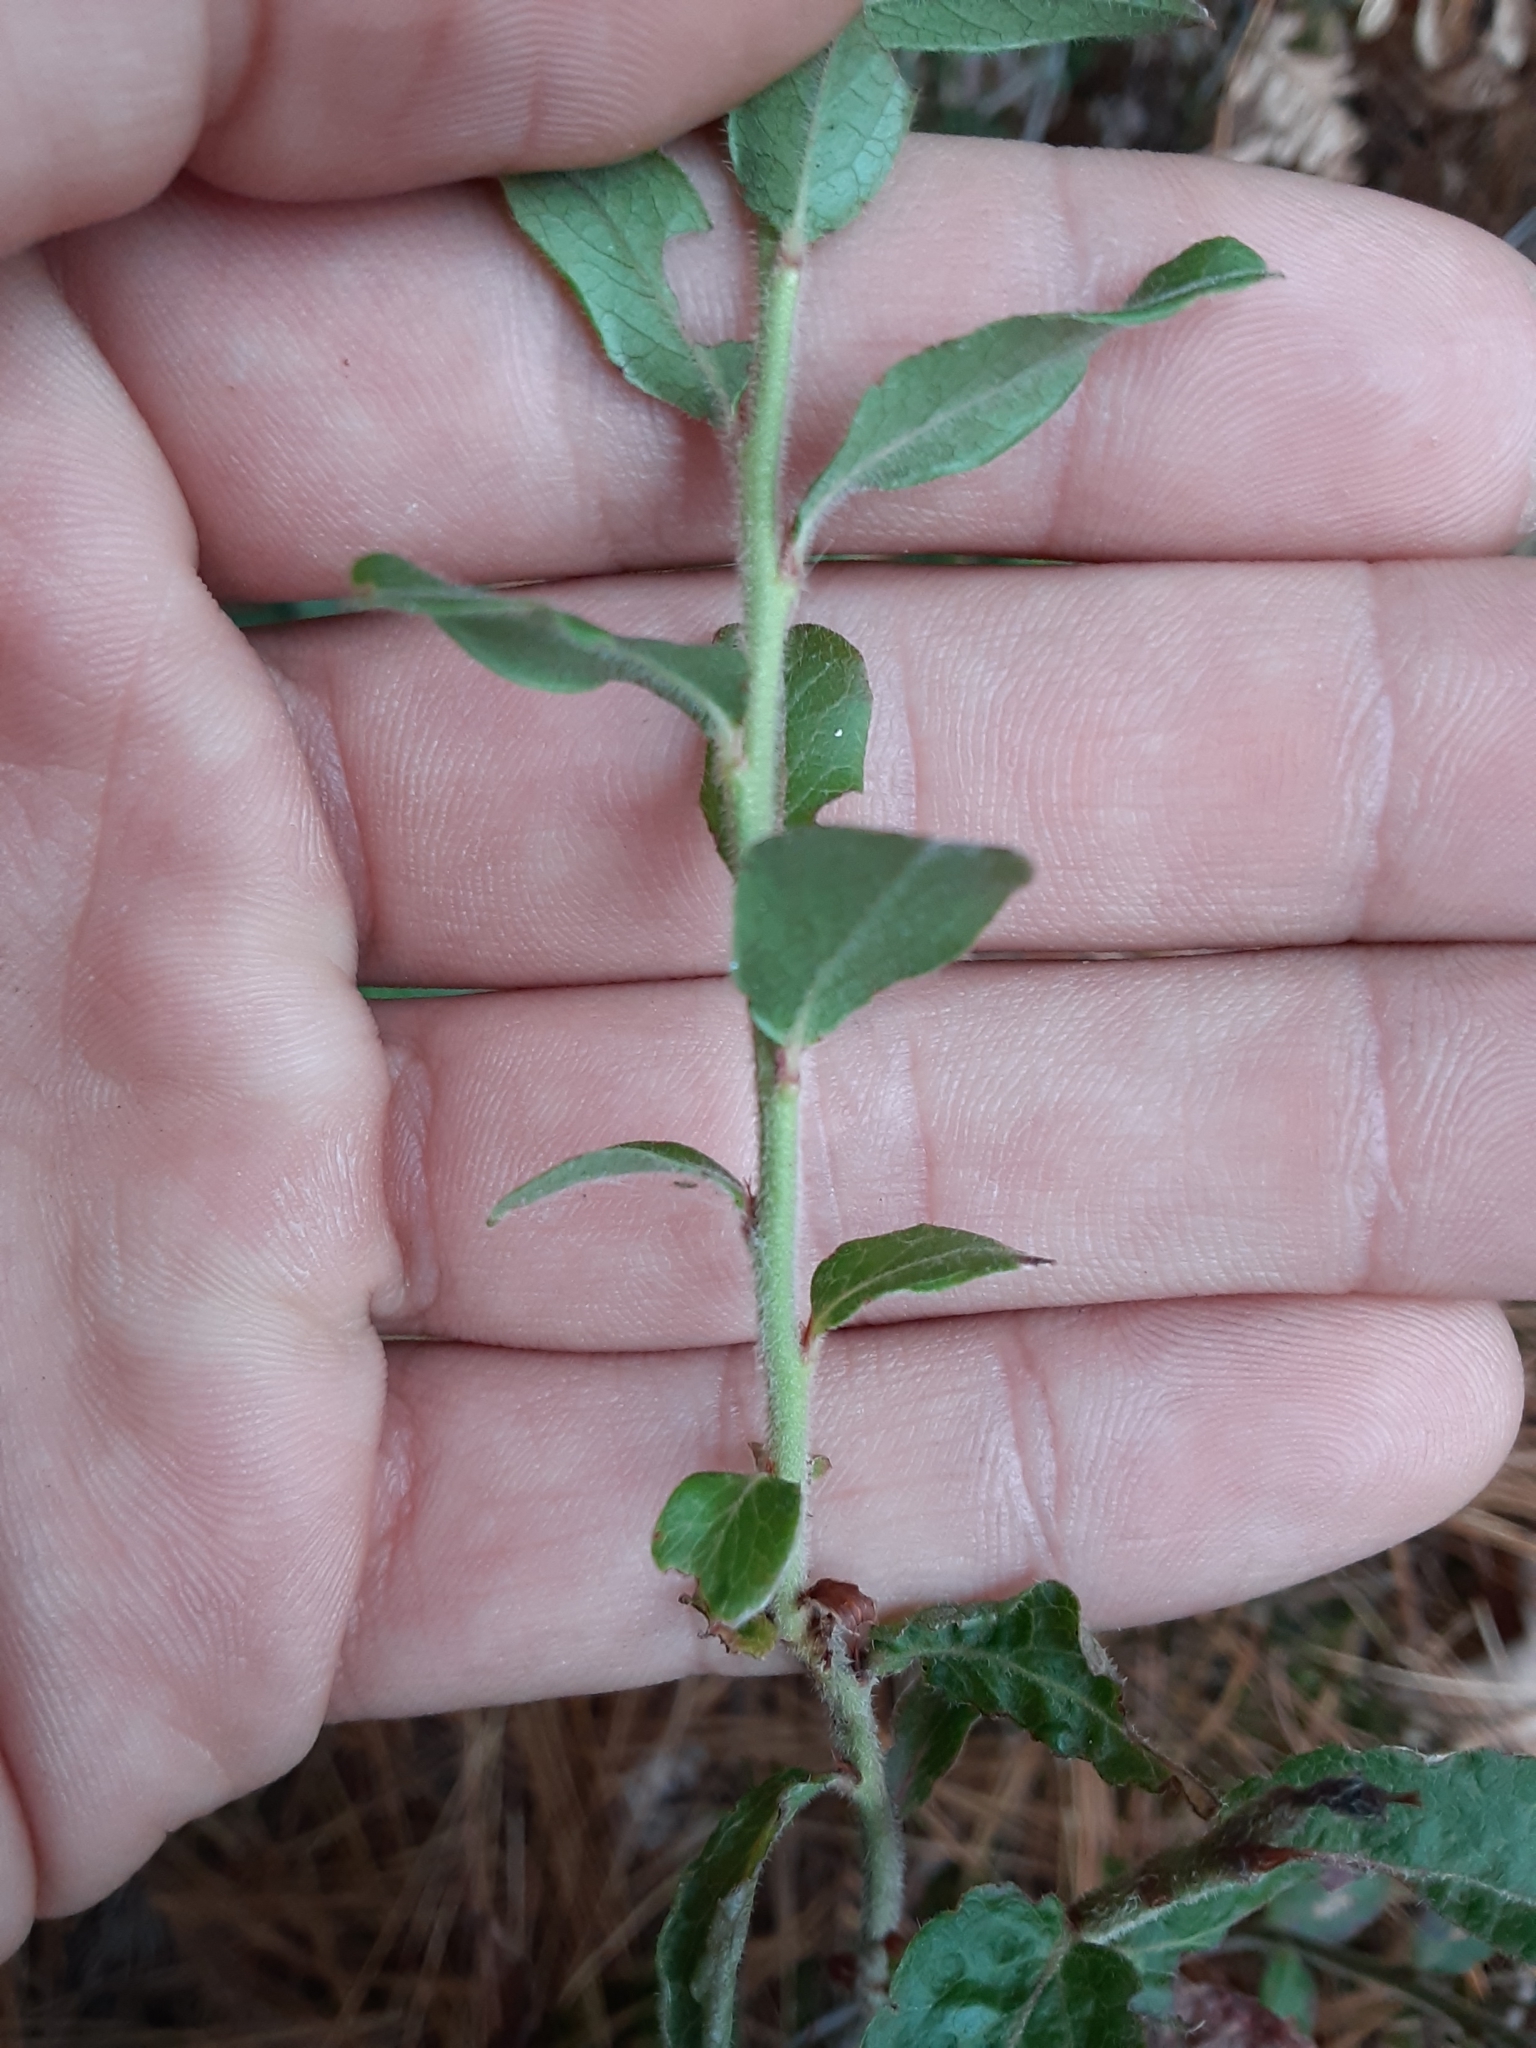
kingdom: Plantae
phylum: Tracheophyta
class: Magnoliopsida
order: Ericales
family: Ericaceae
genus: Vaccinium
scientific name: Vaccinium myrtilloides
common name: Canada blueberry
